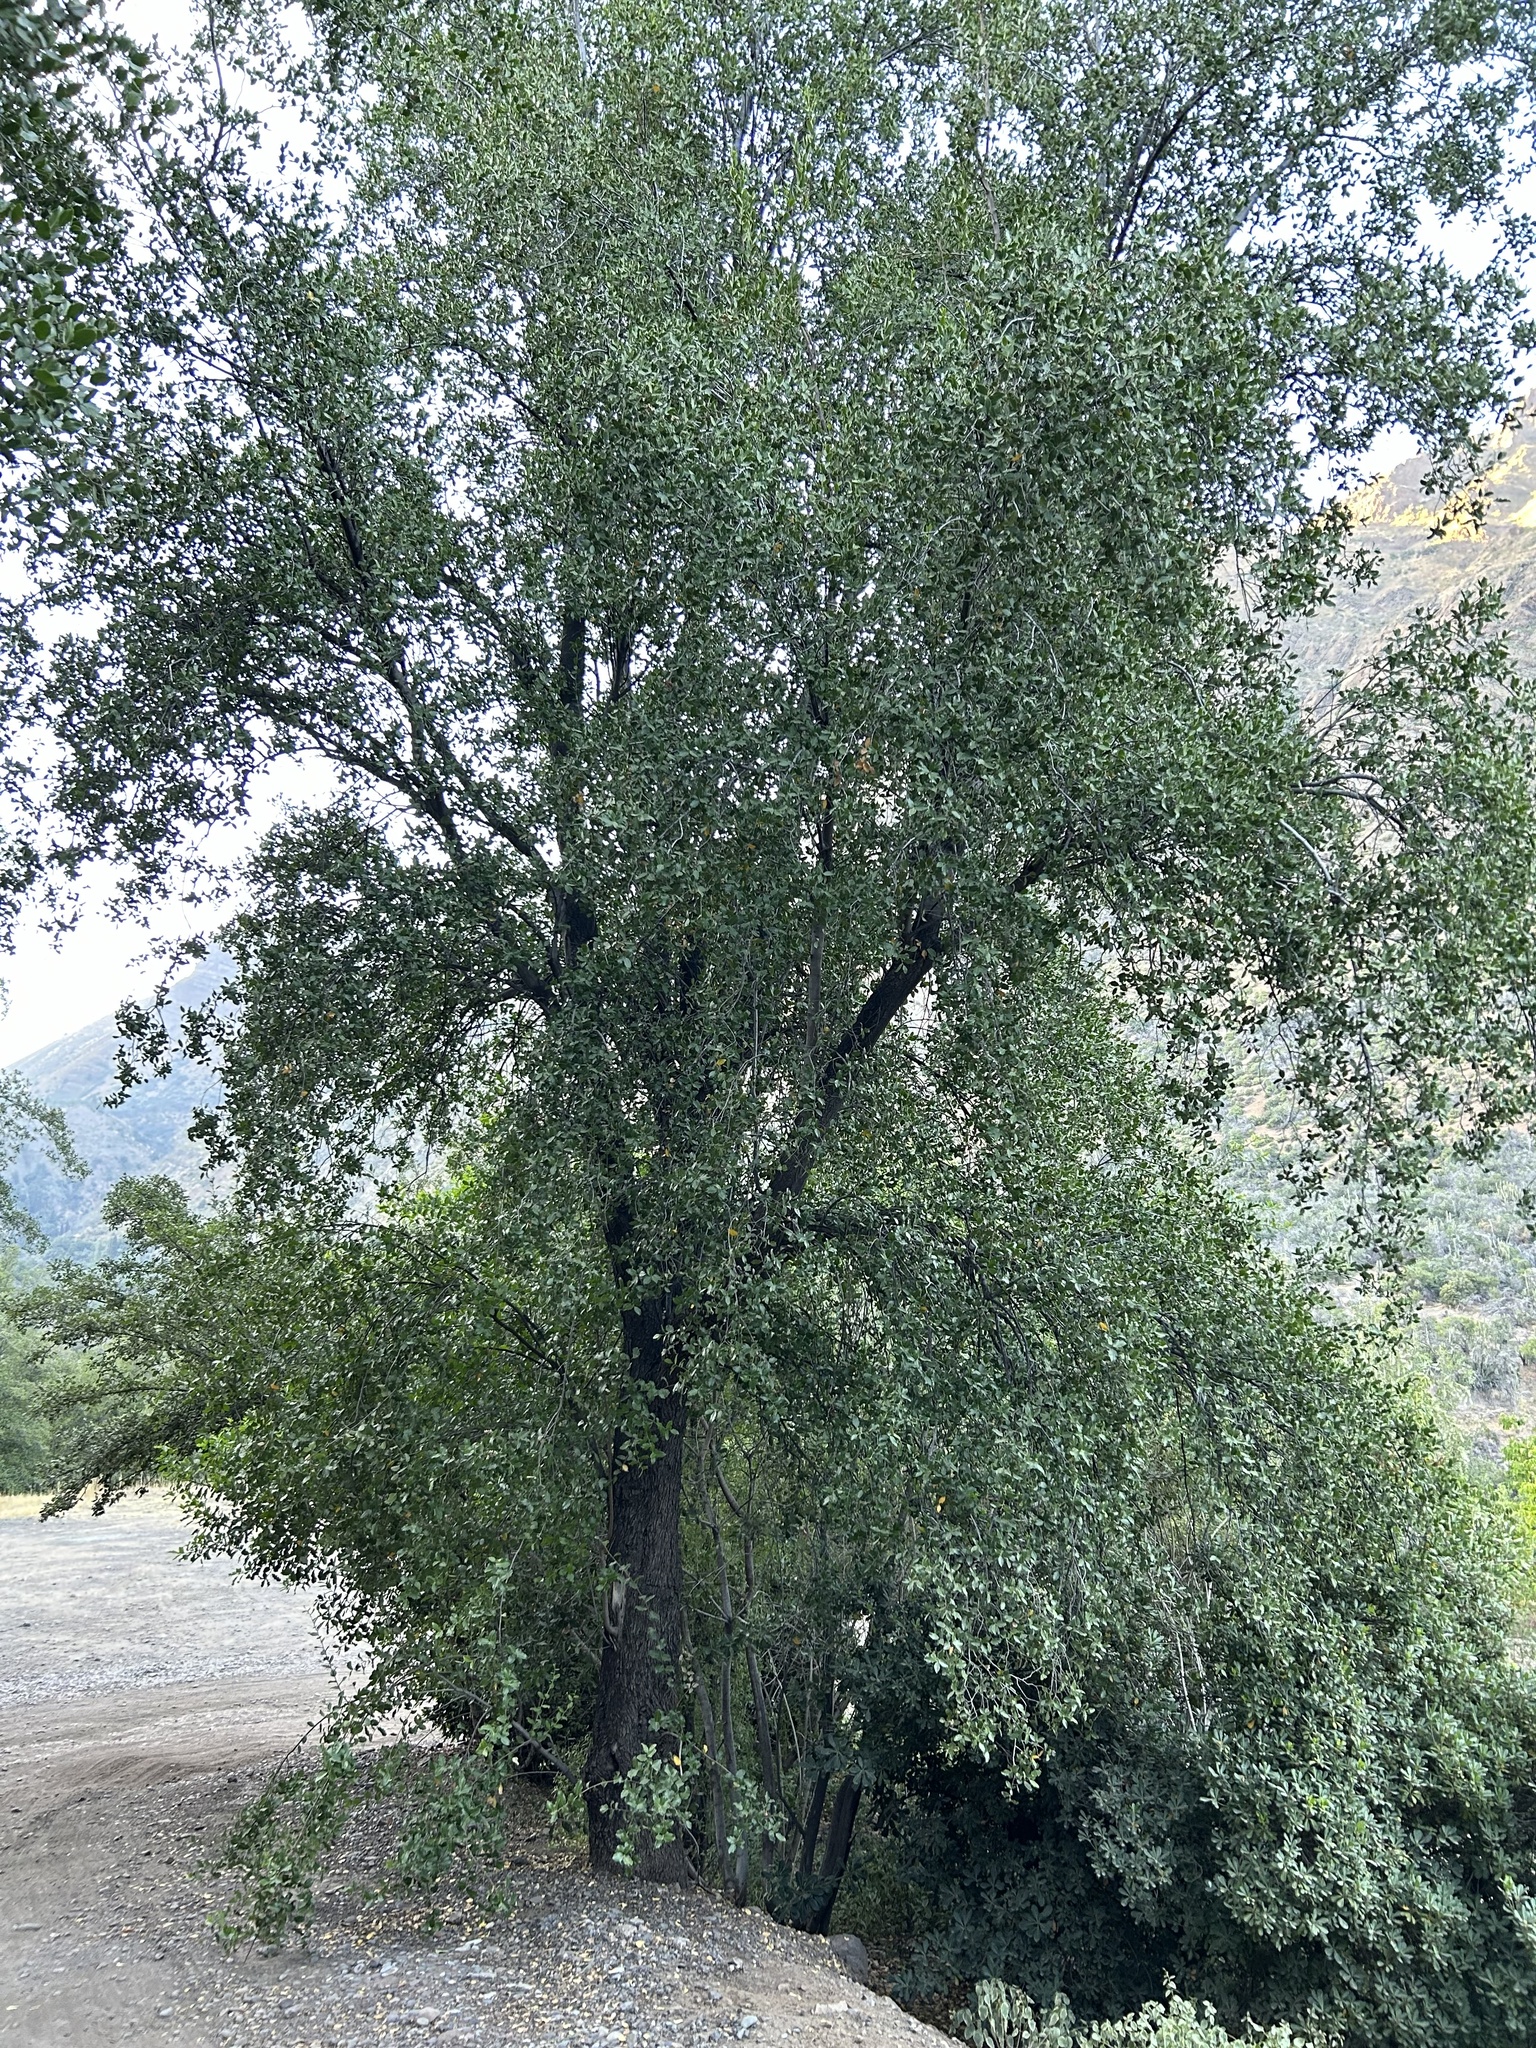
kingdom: Plantae
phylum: Tracheophyta
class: Magnoliopsida
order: Fabales
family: Quillajaceae
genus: Quillaja
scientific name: Quillaja saponaria
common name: Murillo's-bark
